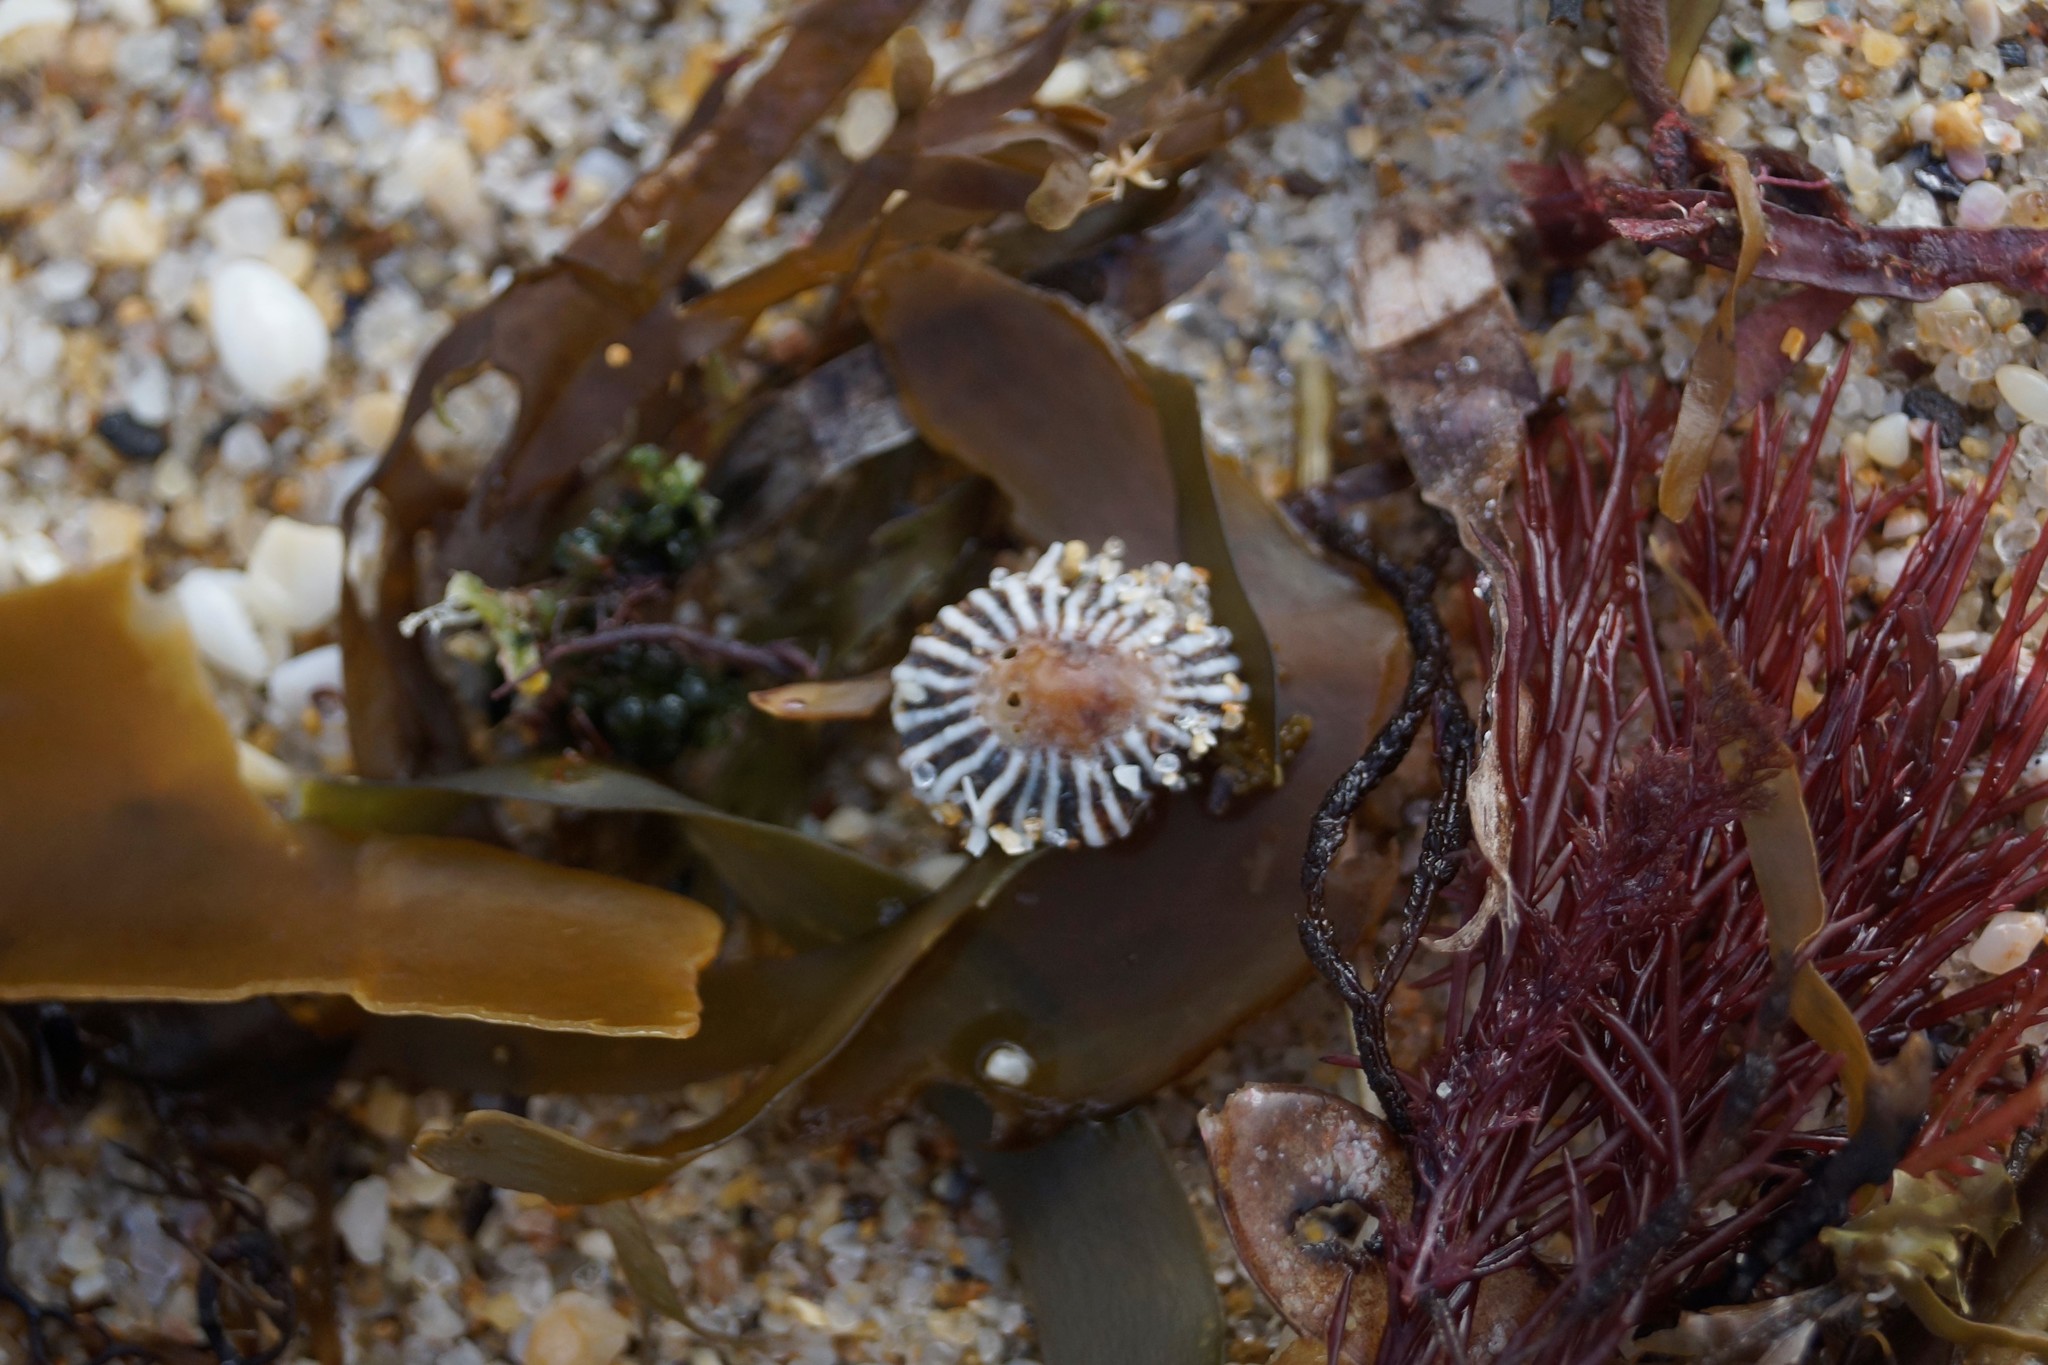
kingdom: Animalia
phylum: Mollusca
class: Gastropoda
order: Siphonariida
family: Siphonariidae
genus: Siphonaria
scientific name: Siphonaria diemenensis
